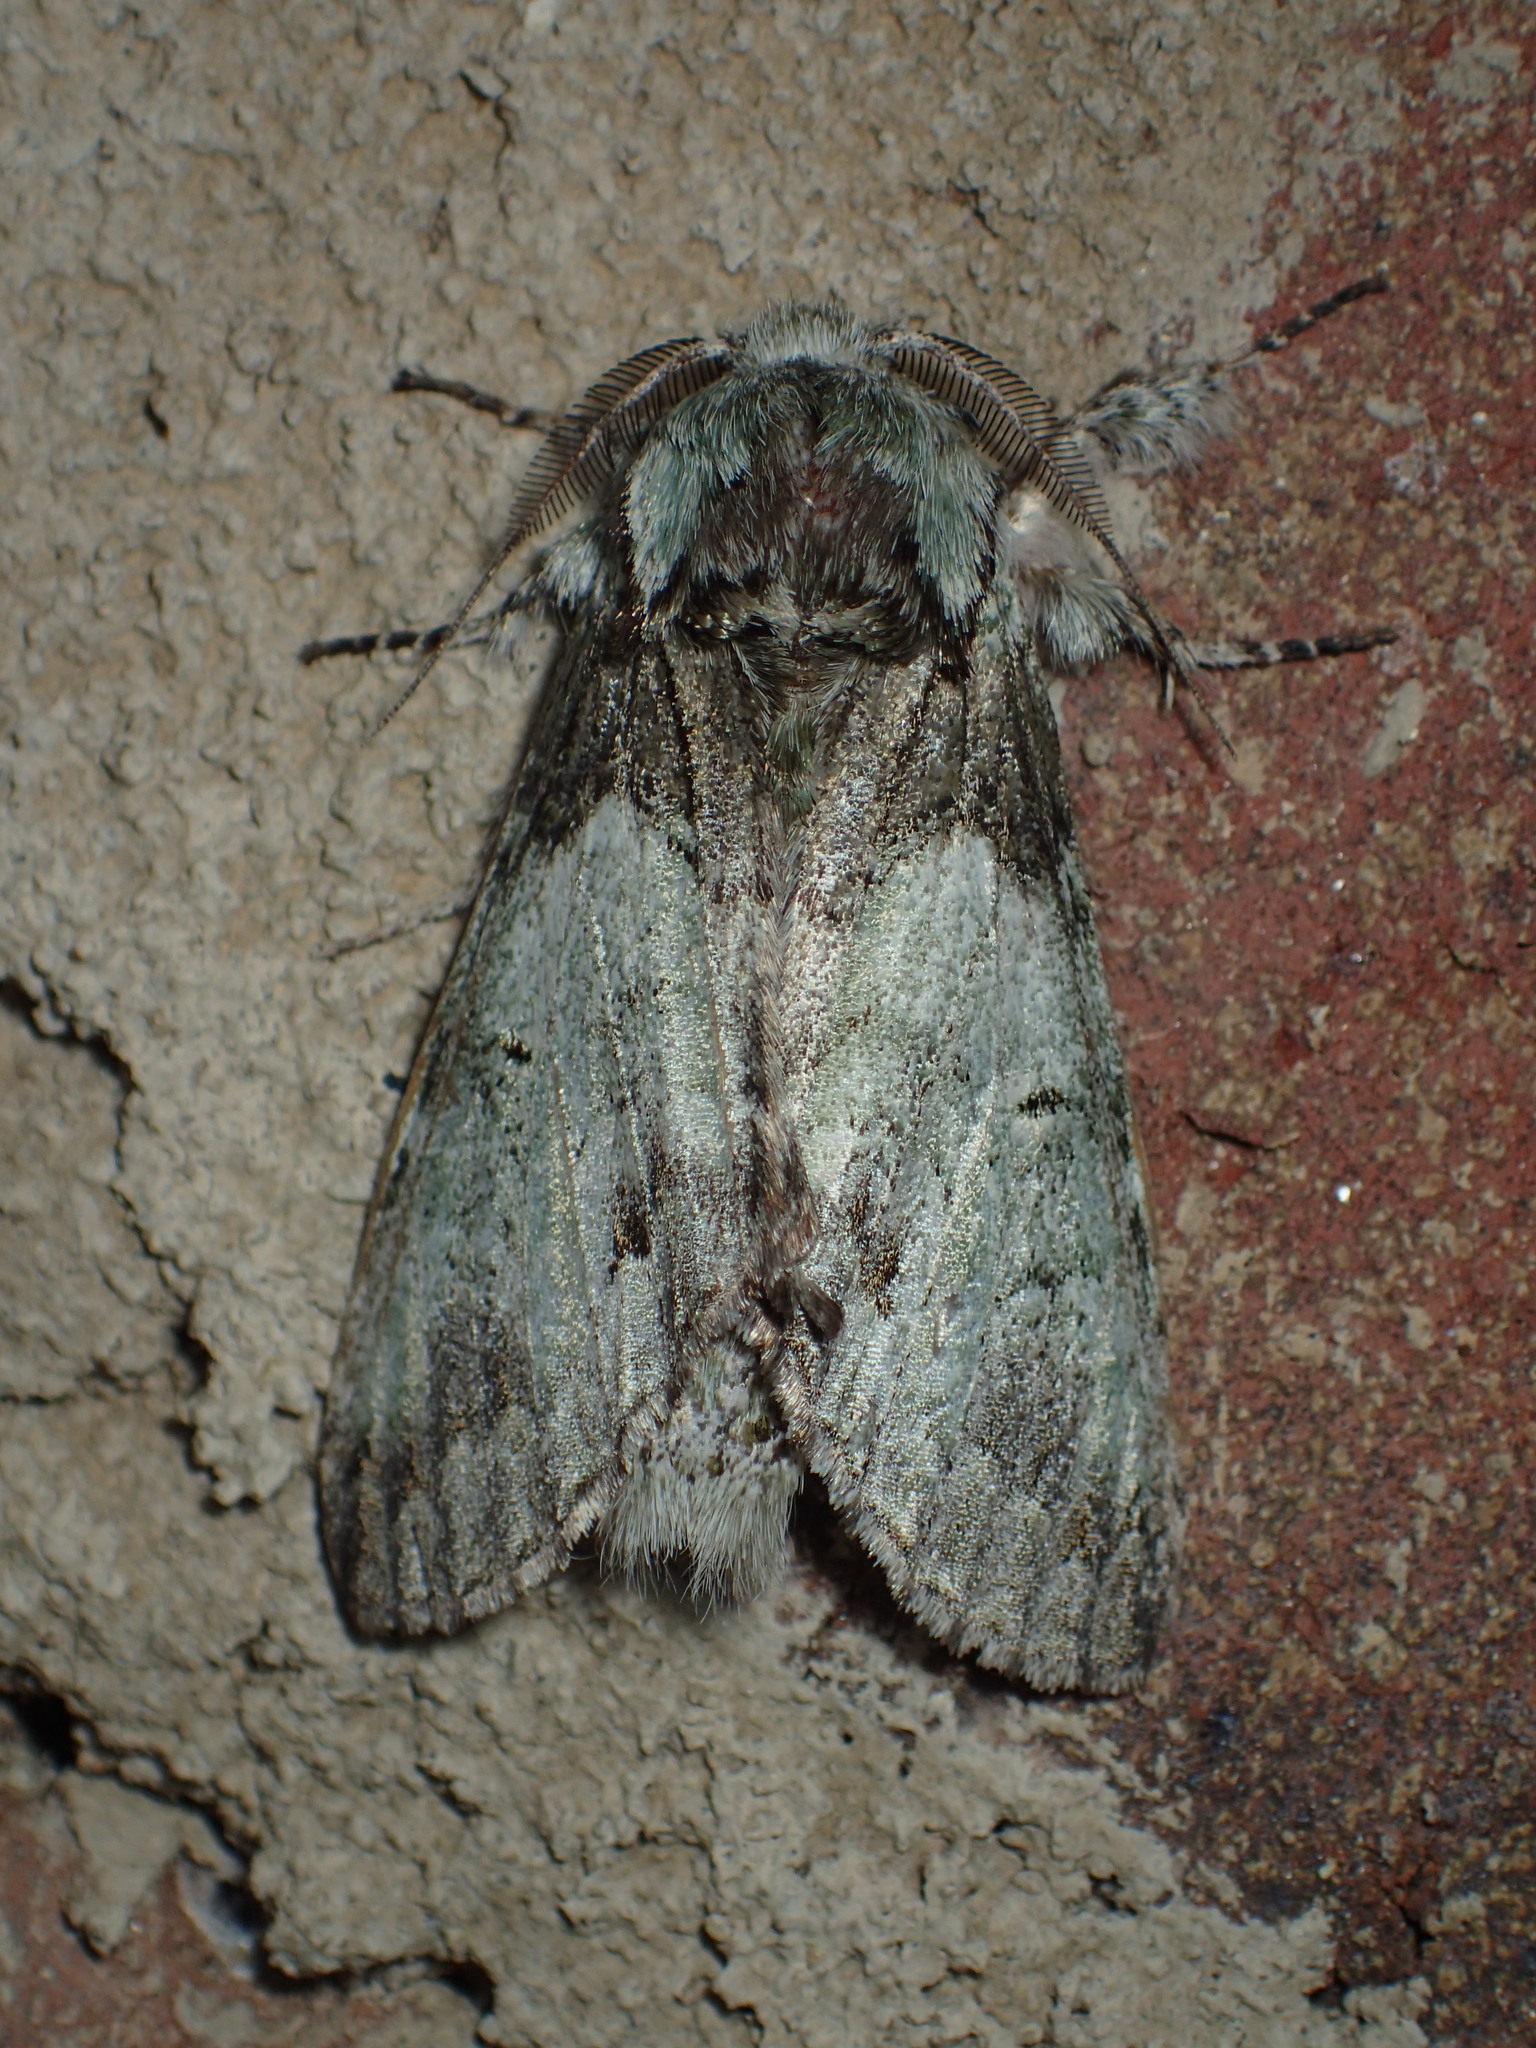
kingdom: Animalia
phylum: Arthropoda
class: Insecta
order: Lepidoptera
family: Notodontidae
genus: Macrurocampa
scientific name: Macrurocampa marthesia
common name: Mottled prominent
